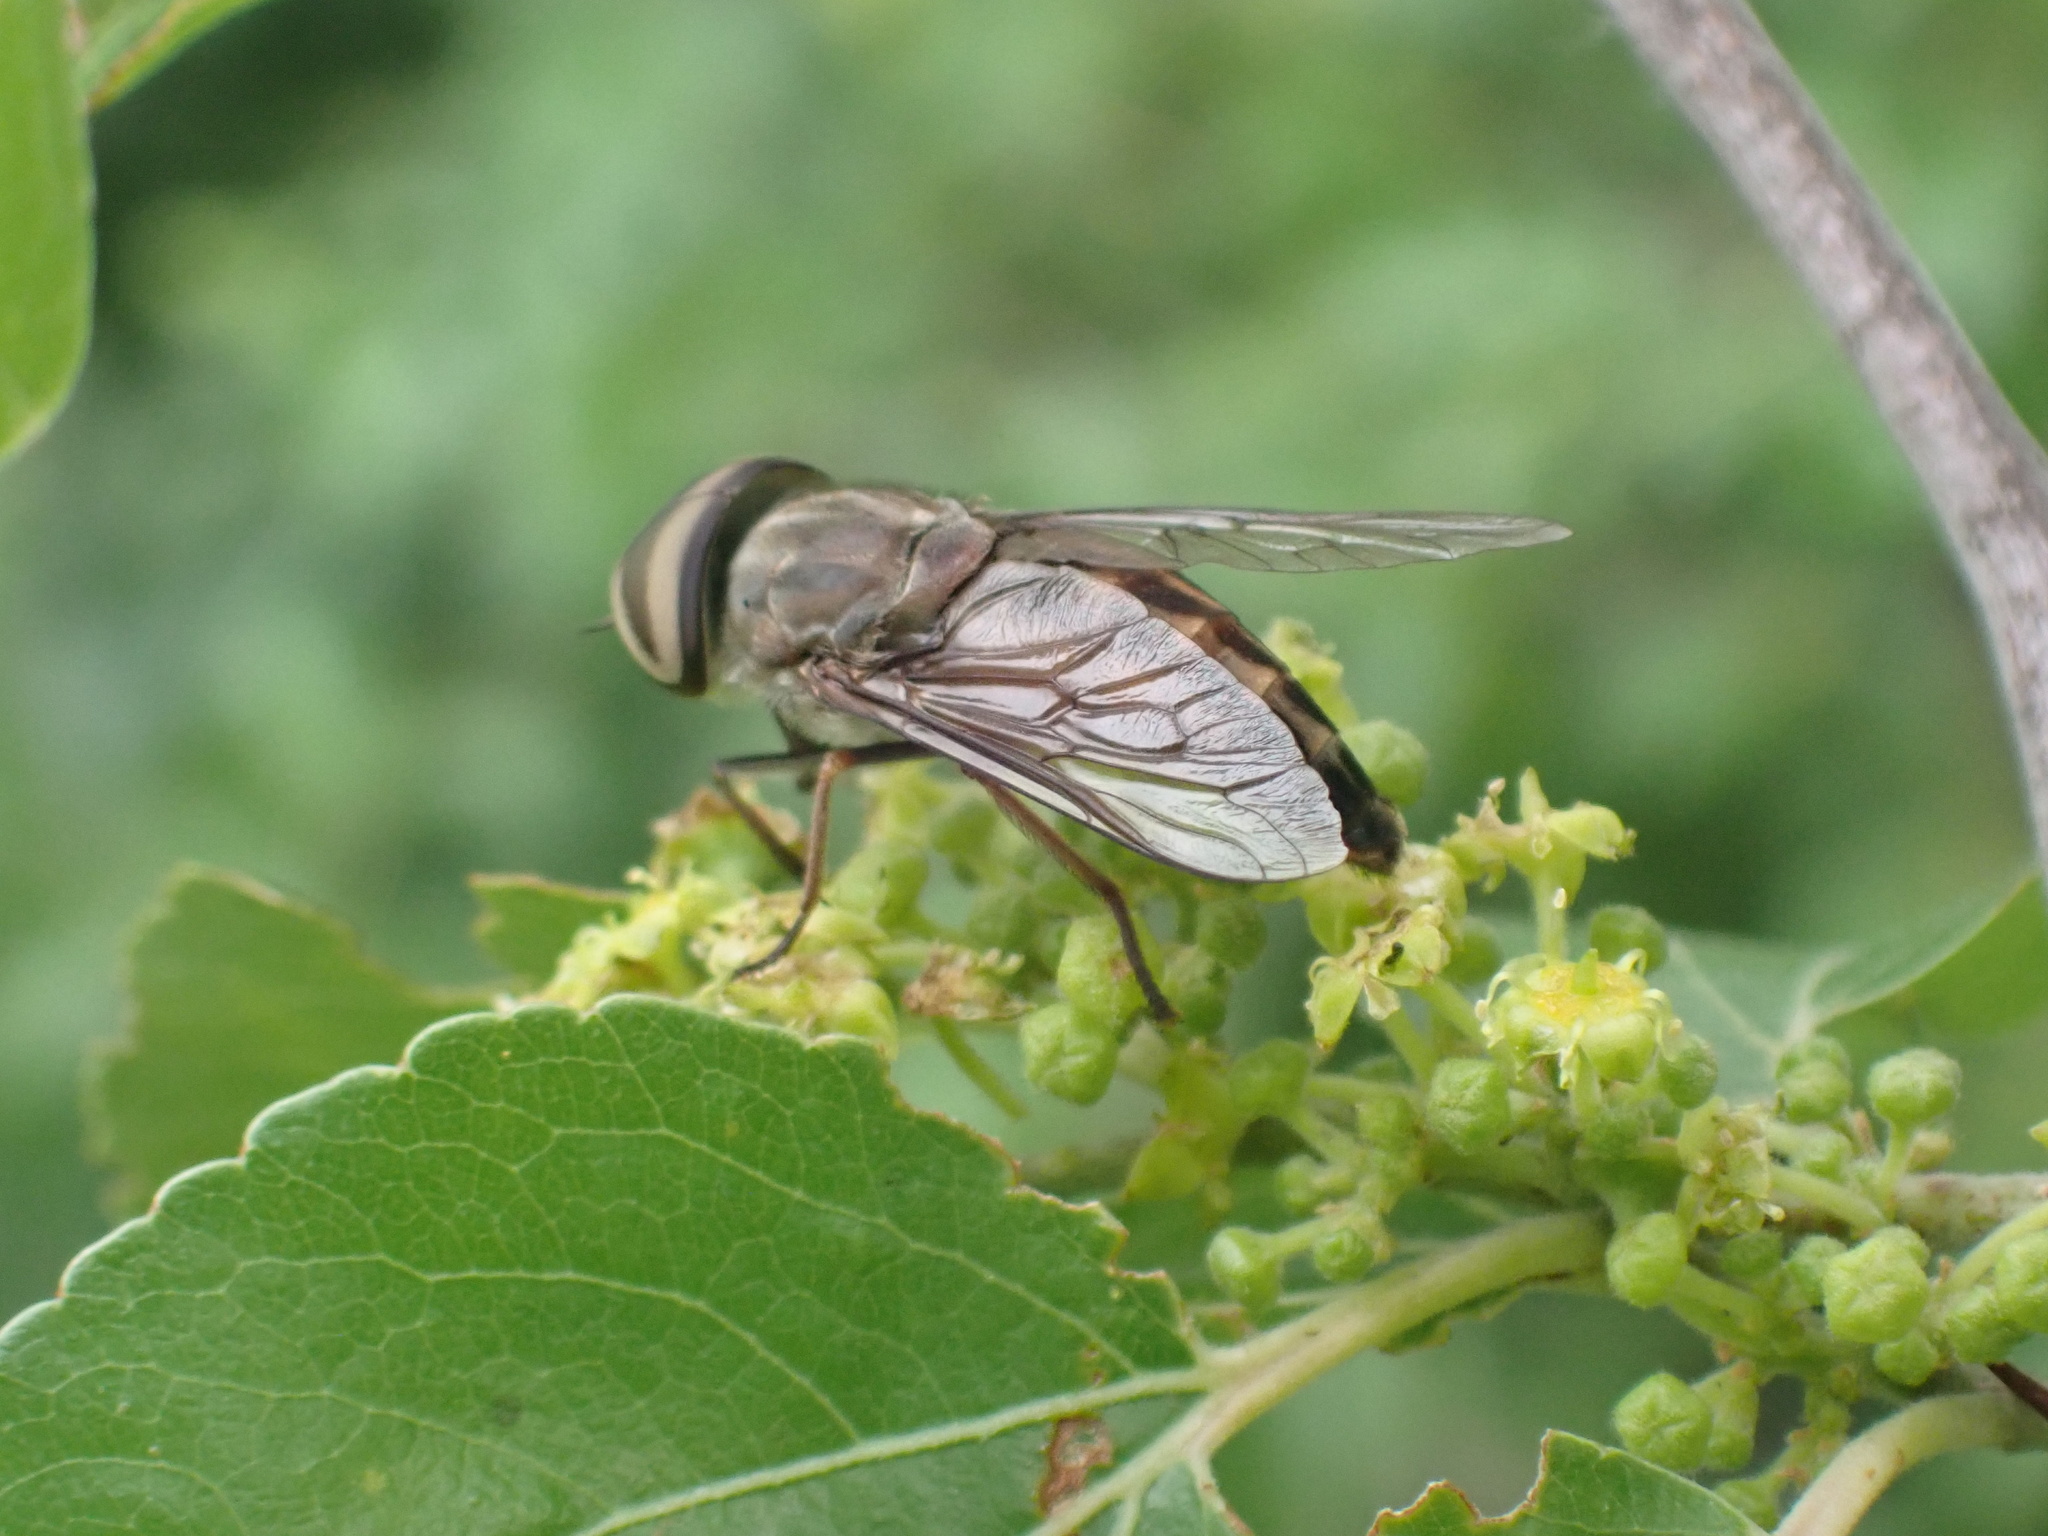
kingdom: Animalia
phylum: Arthropoda
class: Insecta
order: Diptera
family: Tabanidae
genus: Tabanus
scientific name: Tabanus taeniola
